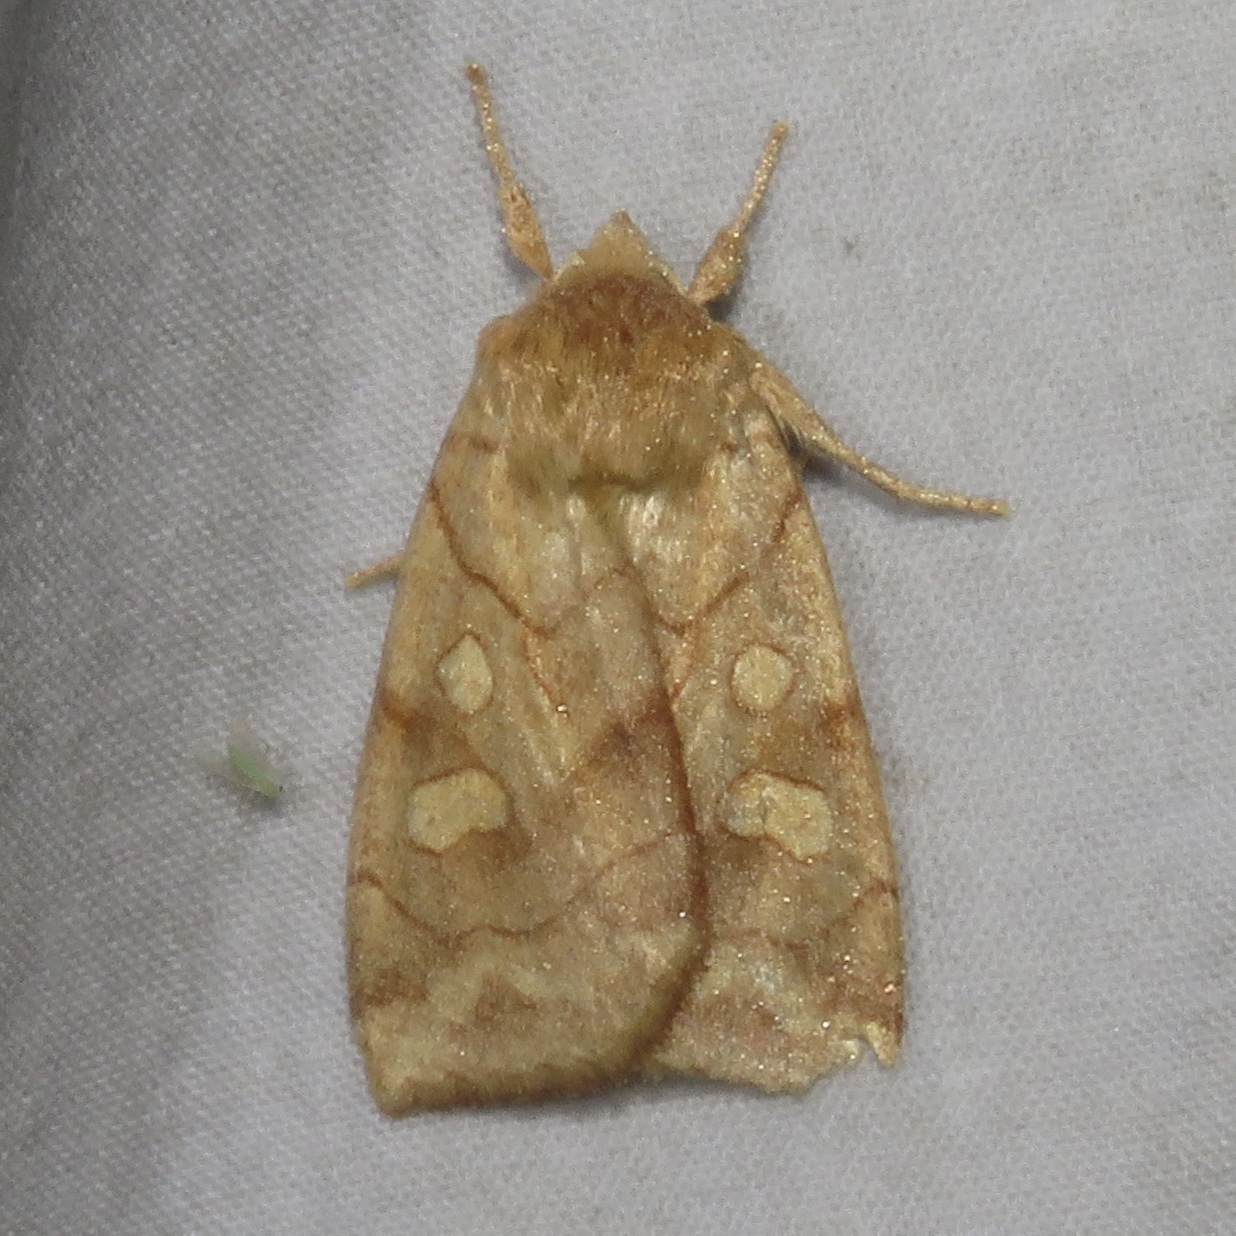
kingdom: Animalia
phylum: Arthropoda
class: Insecta
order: Lepidoptera
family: Noctuidae
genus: Enargia
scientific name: Enargia decolor
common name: Aspen twoleaf tier moth
